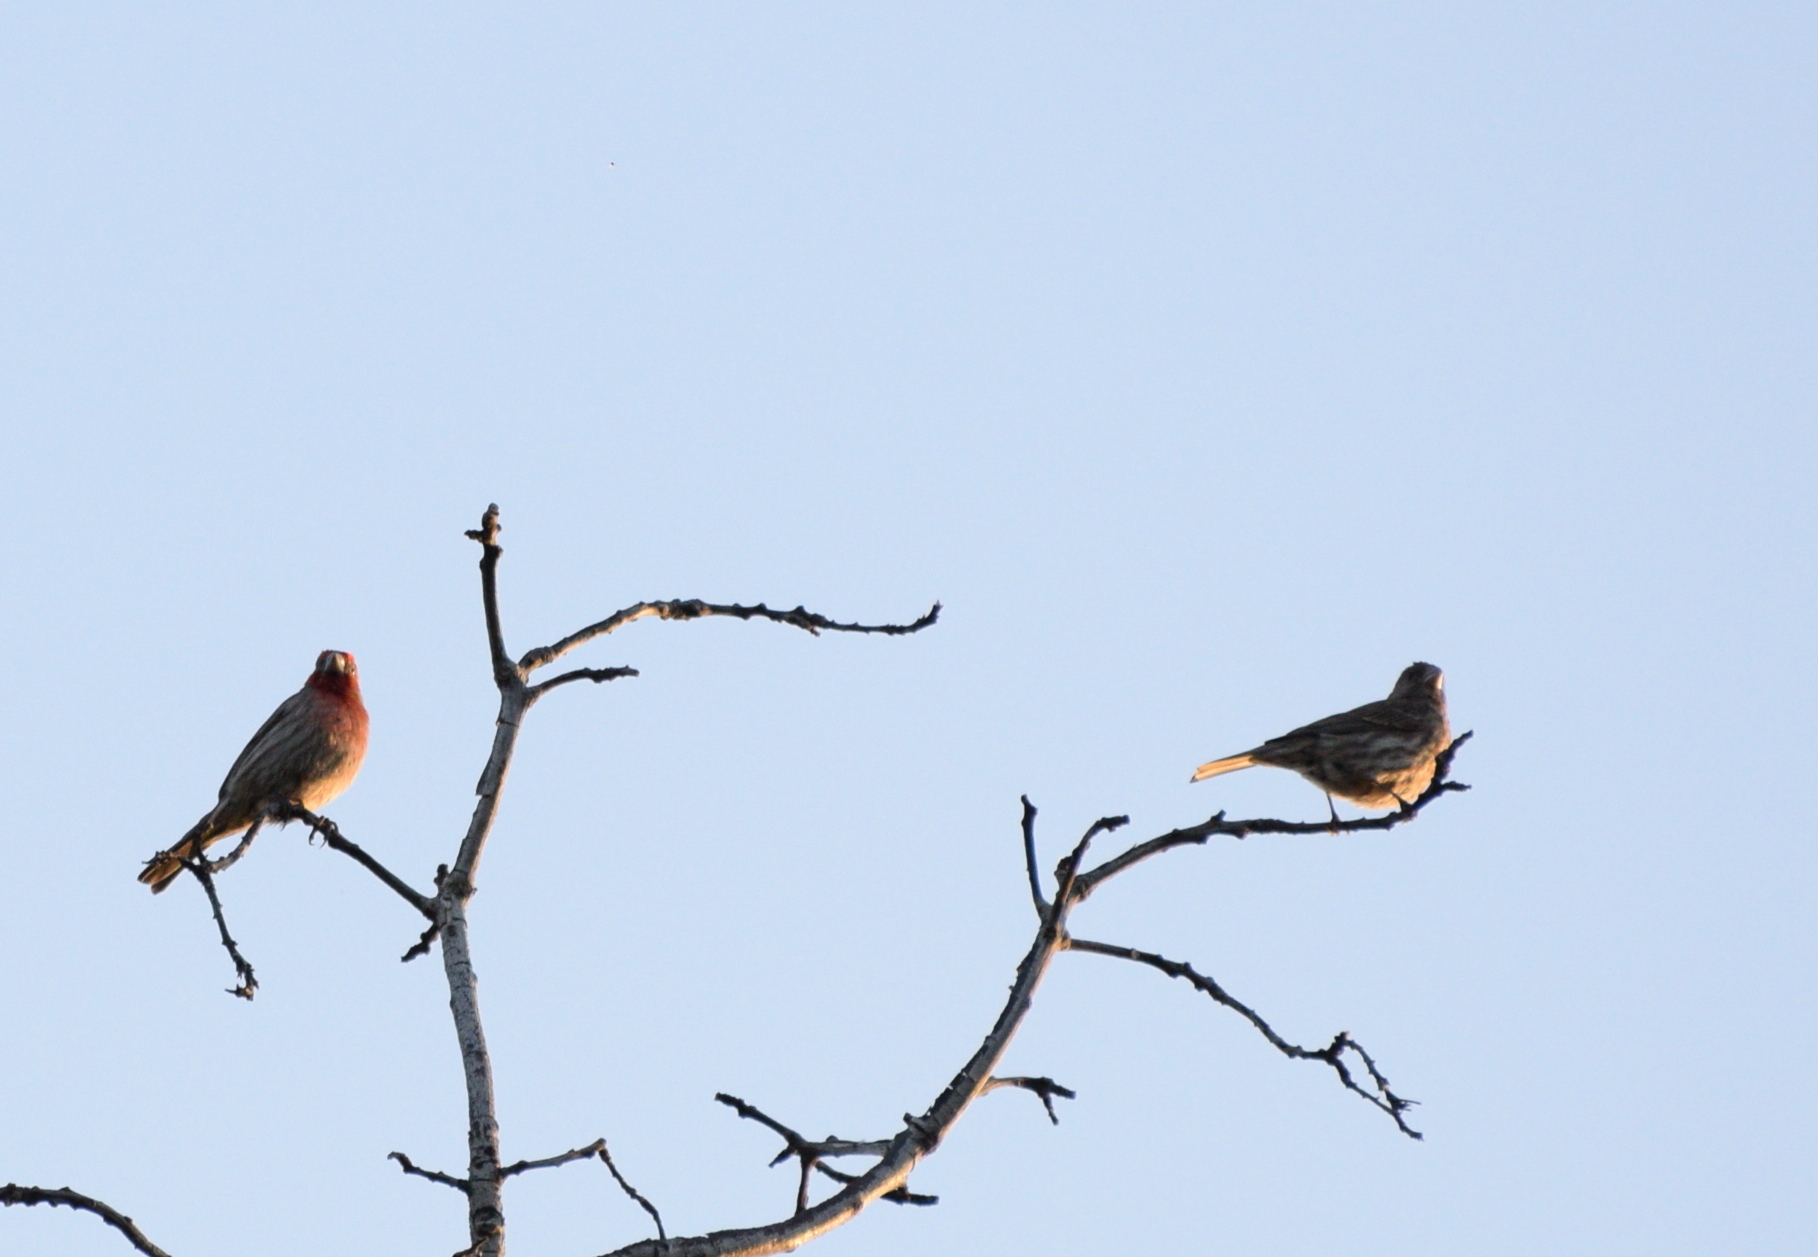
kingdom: Animalia
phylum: Chordata
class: Aves
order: Passeriformes
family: Fringillidae
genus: Haemorhous
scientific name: Haemorhous mexicanus
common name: House finch
